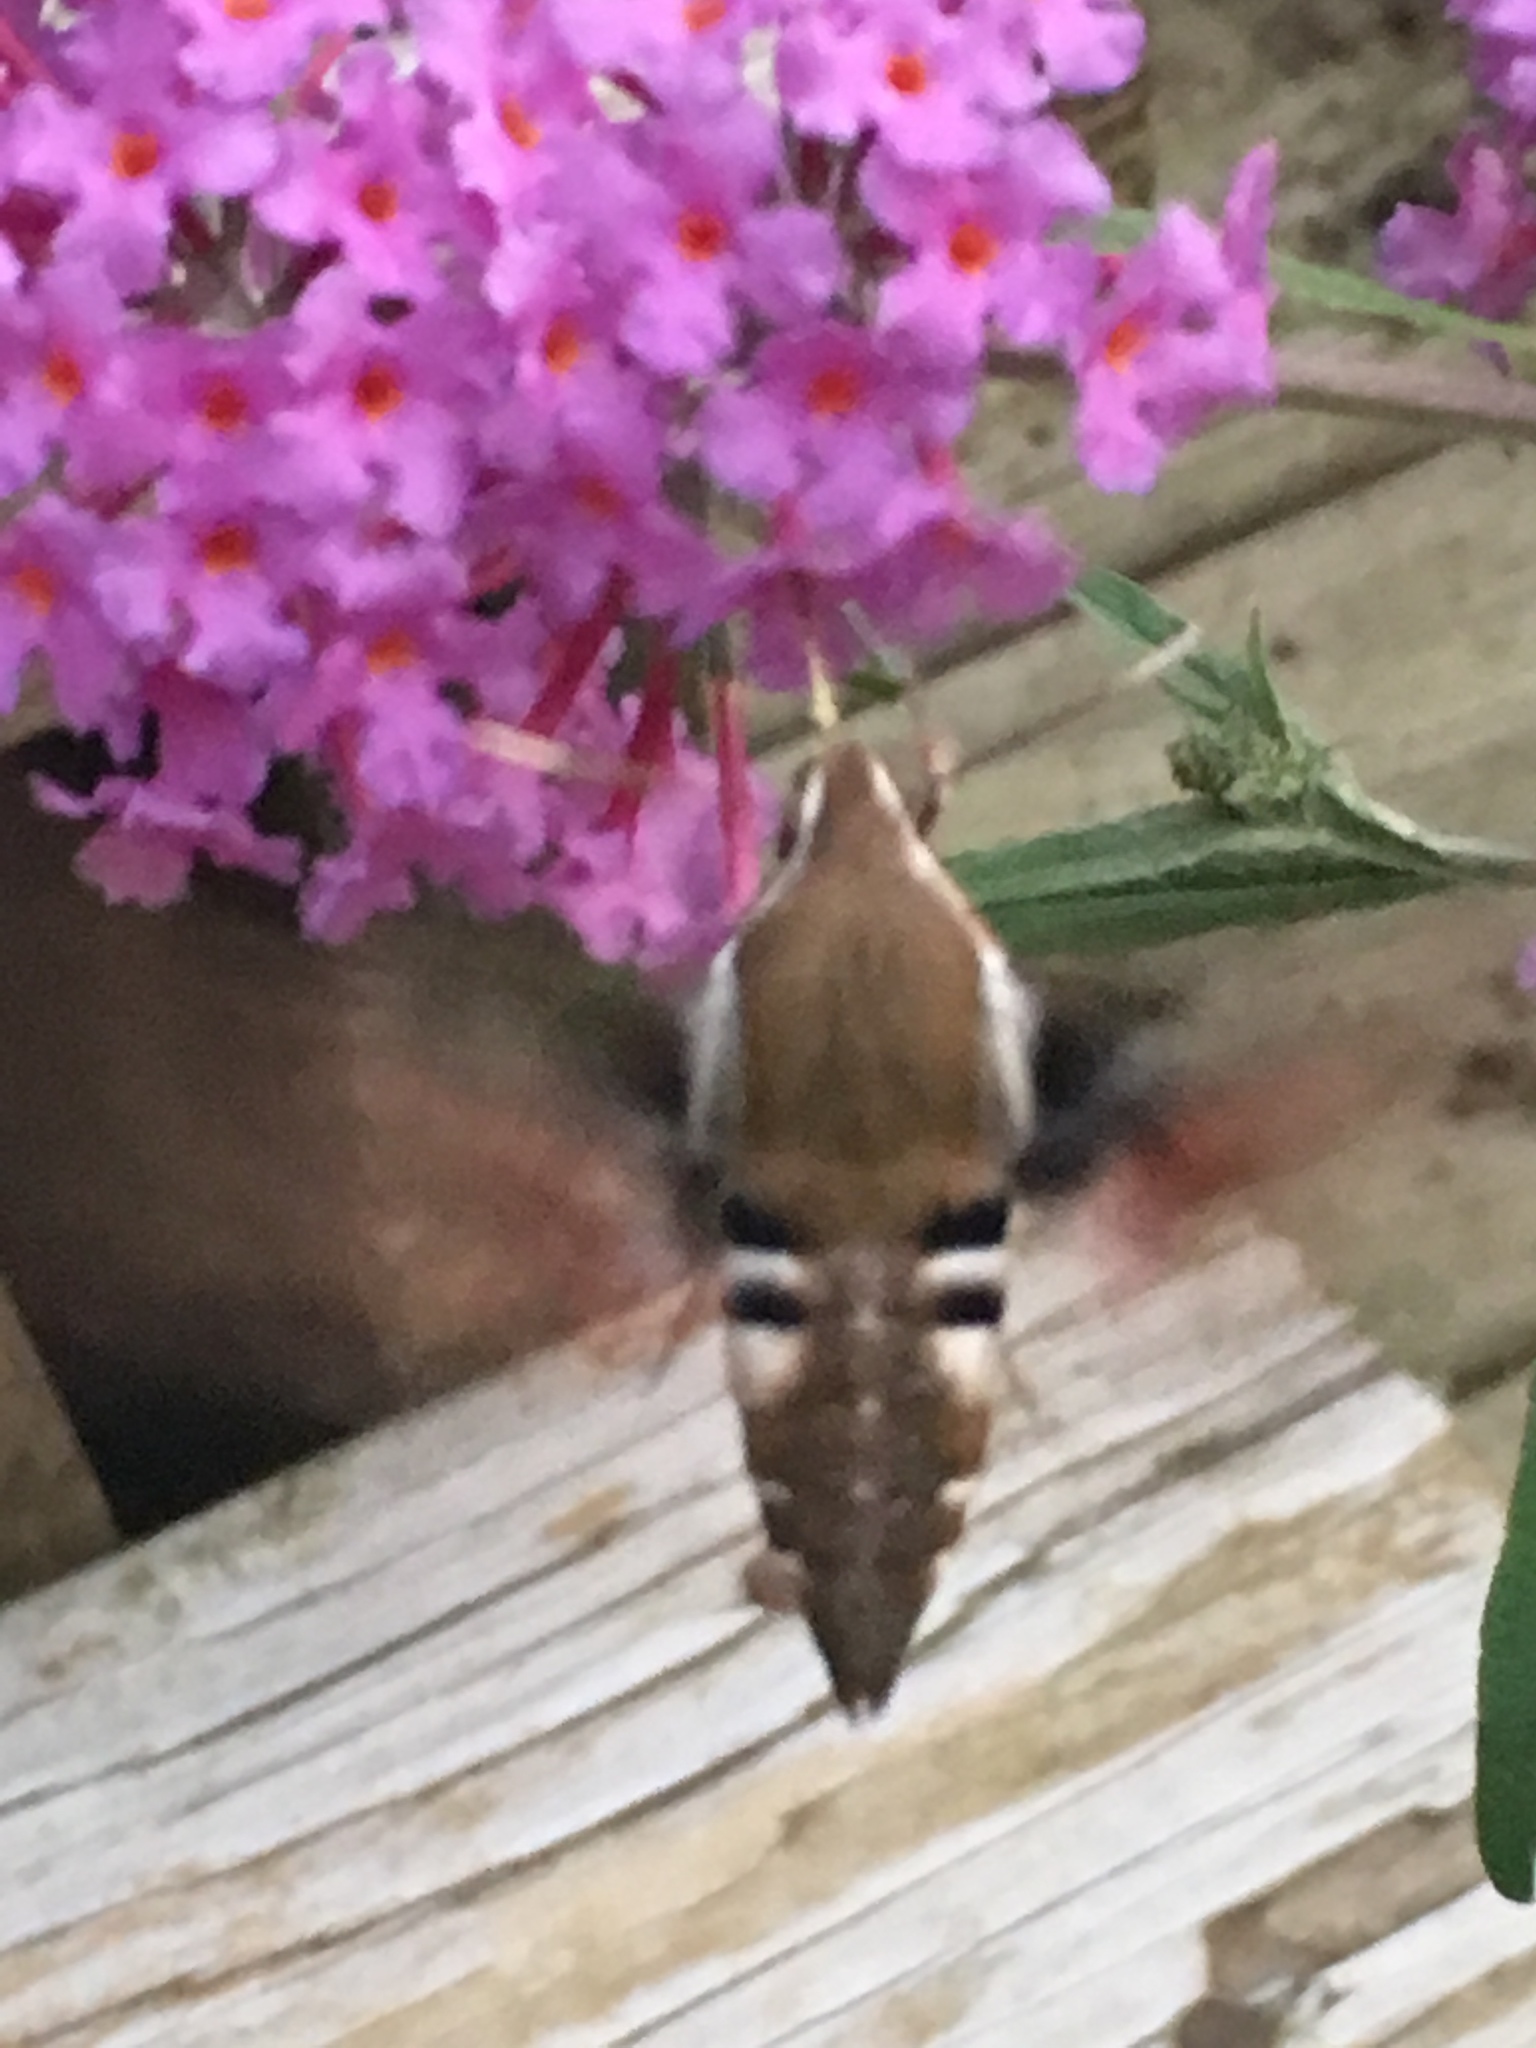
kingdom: Animalia
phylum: Arthropoda
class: Insecta
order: Lepidoptera
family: Sphingidae
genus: Hyles
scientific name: Hyles gallii
